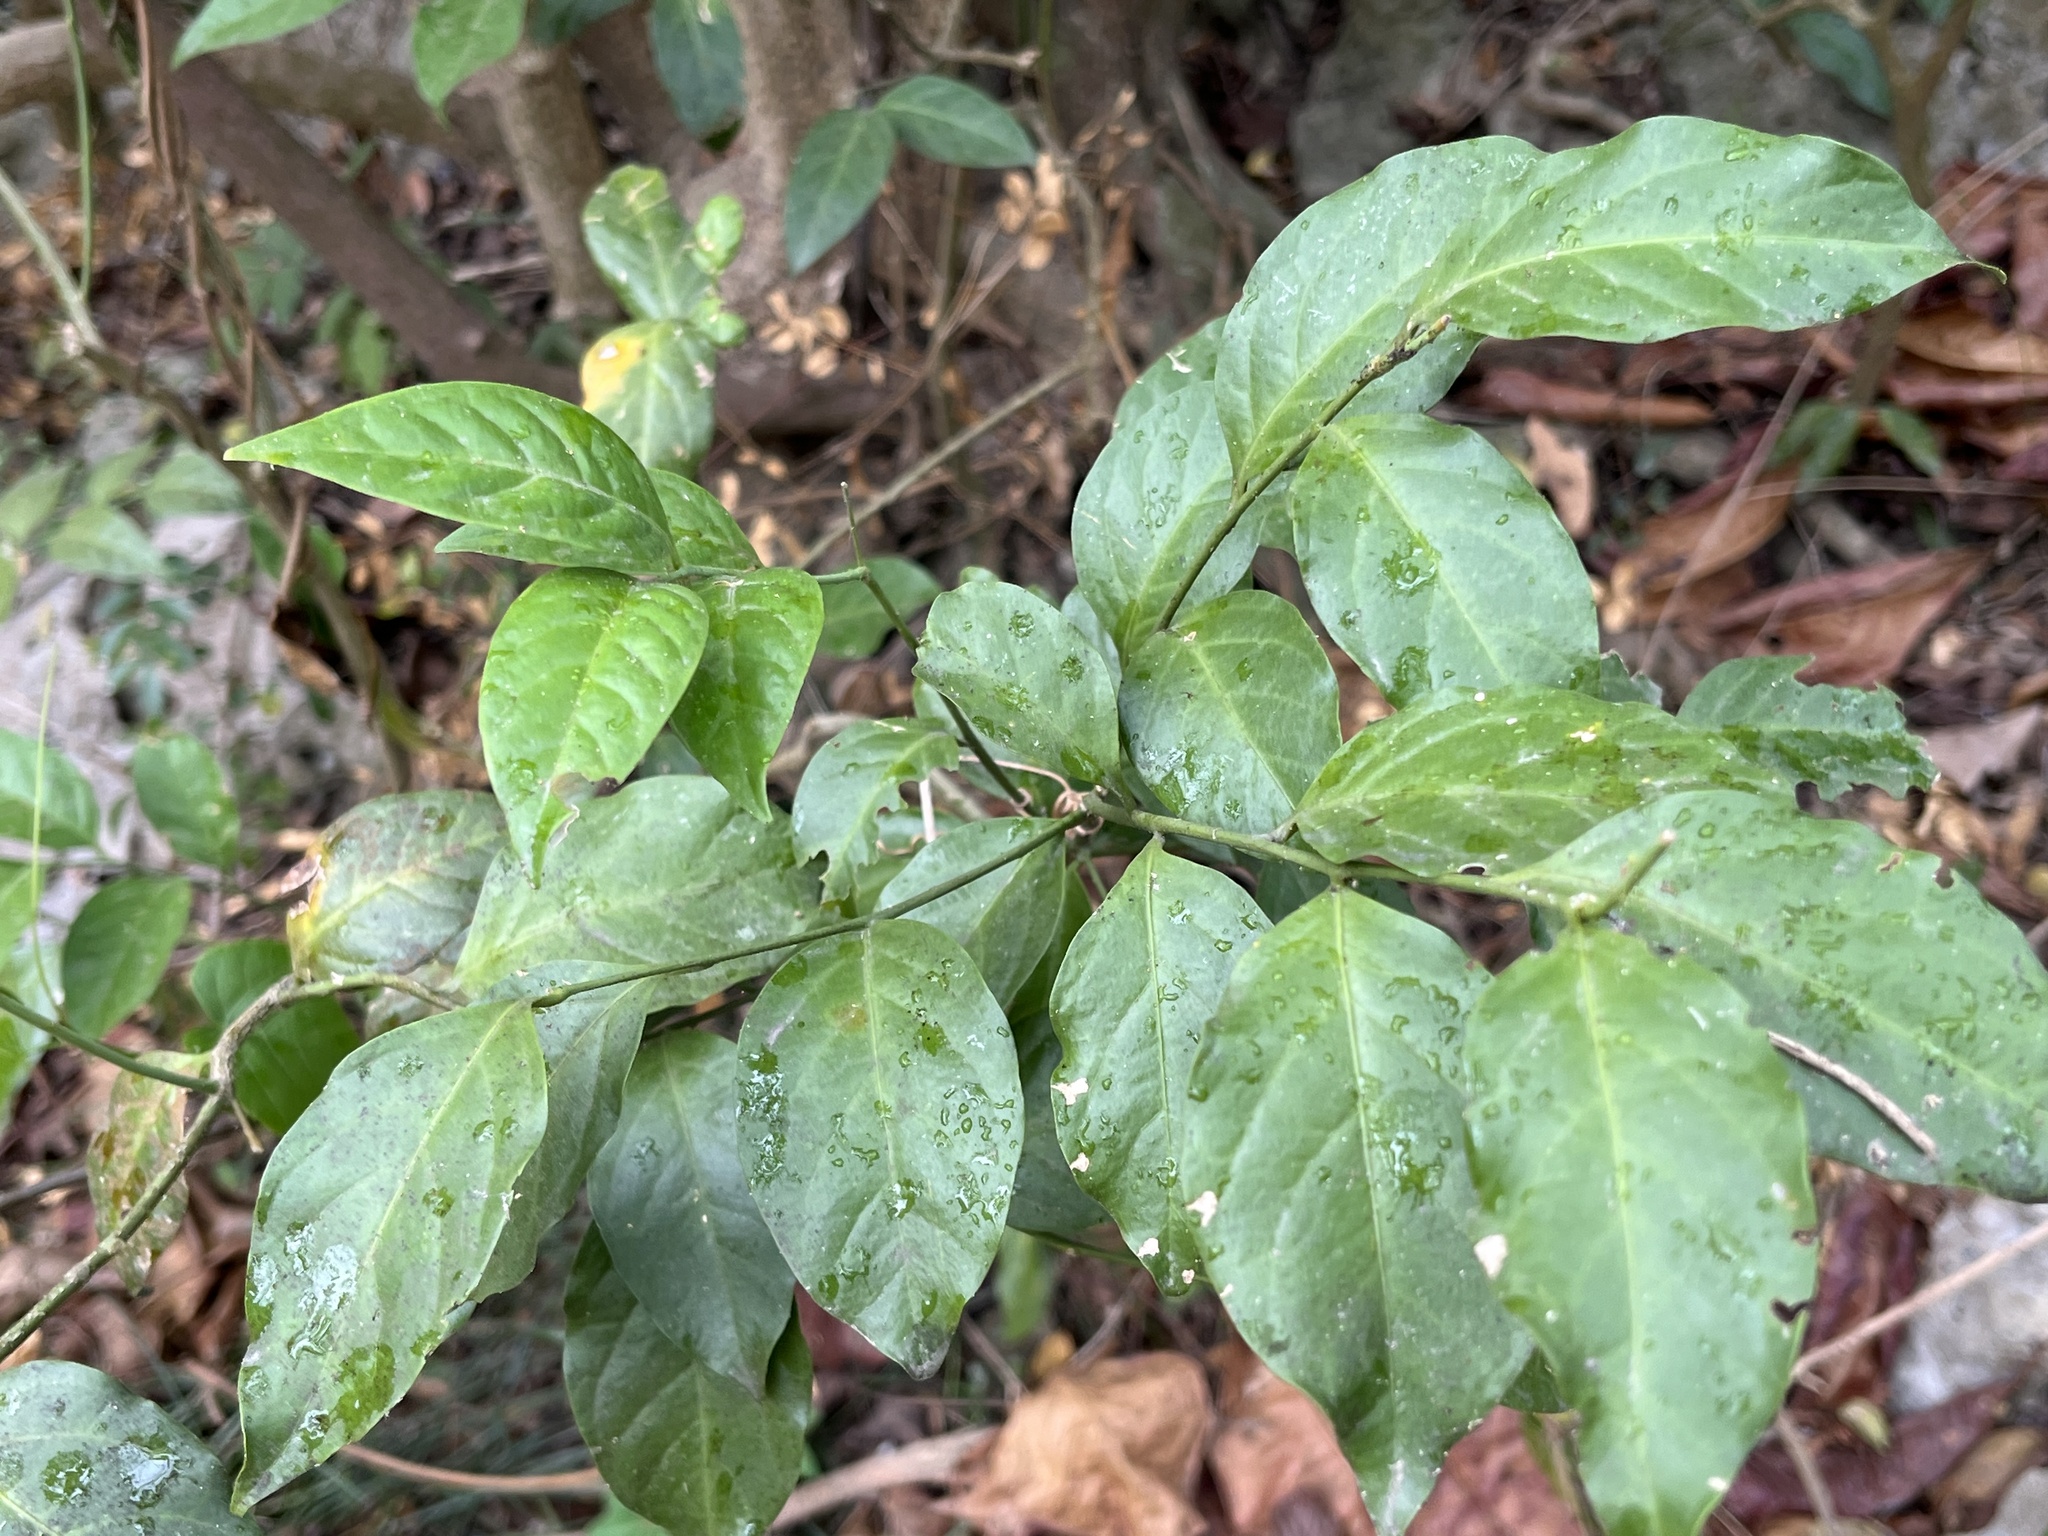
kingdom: Plantae
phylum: Tracheophyta
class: Magnoliopsida
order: Santalales
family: Opiliaceae
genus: Champereia
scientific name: Champereia manillana
